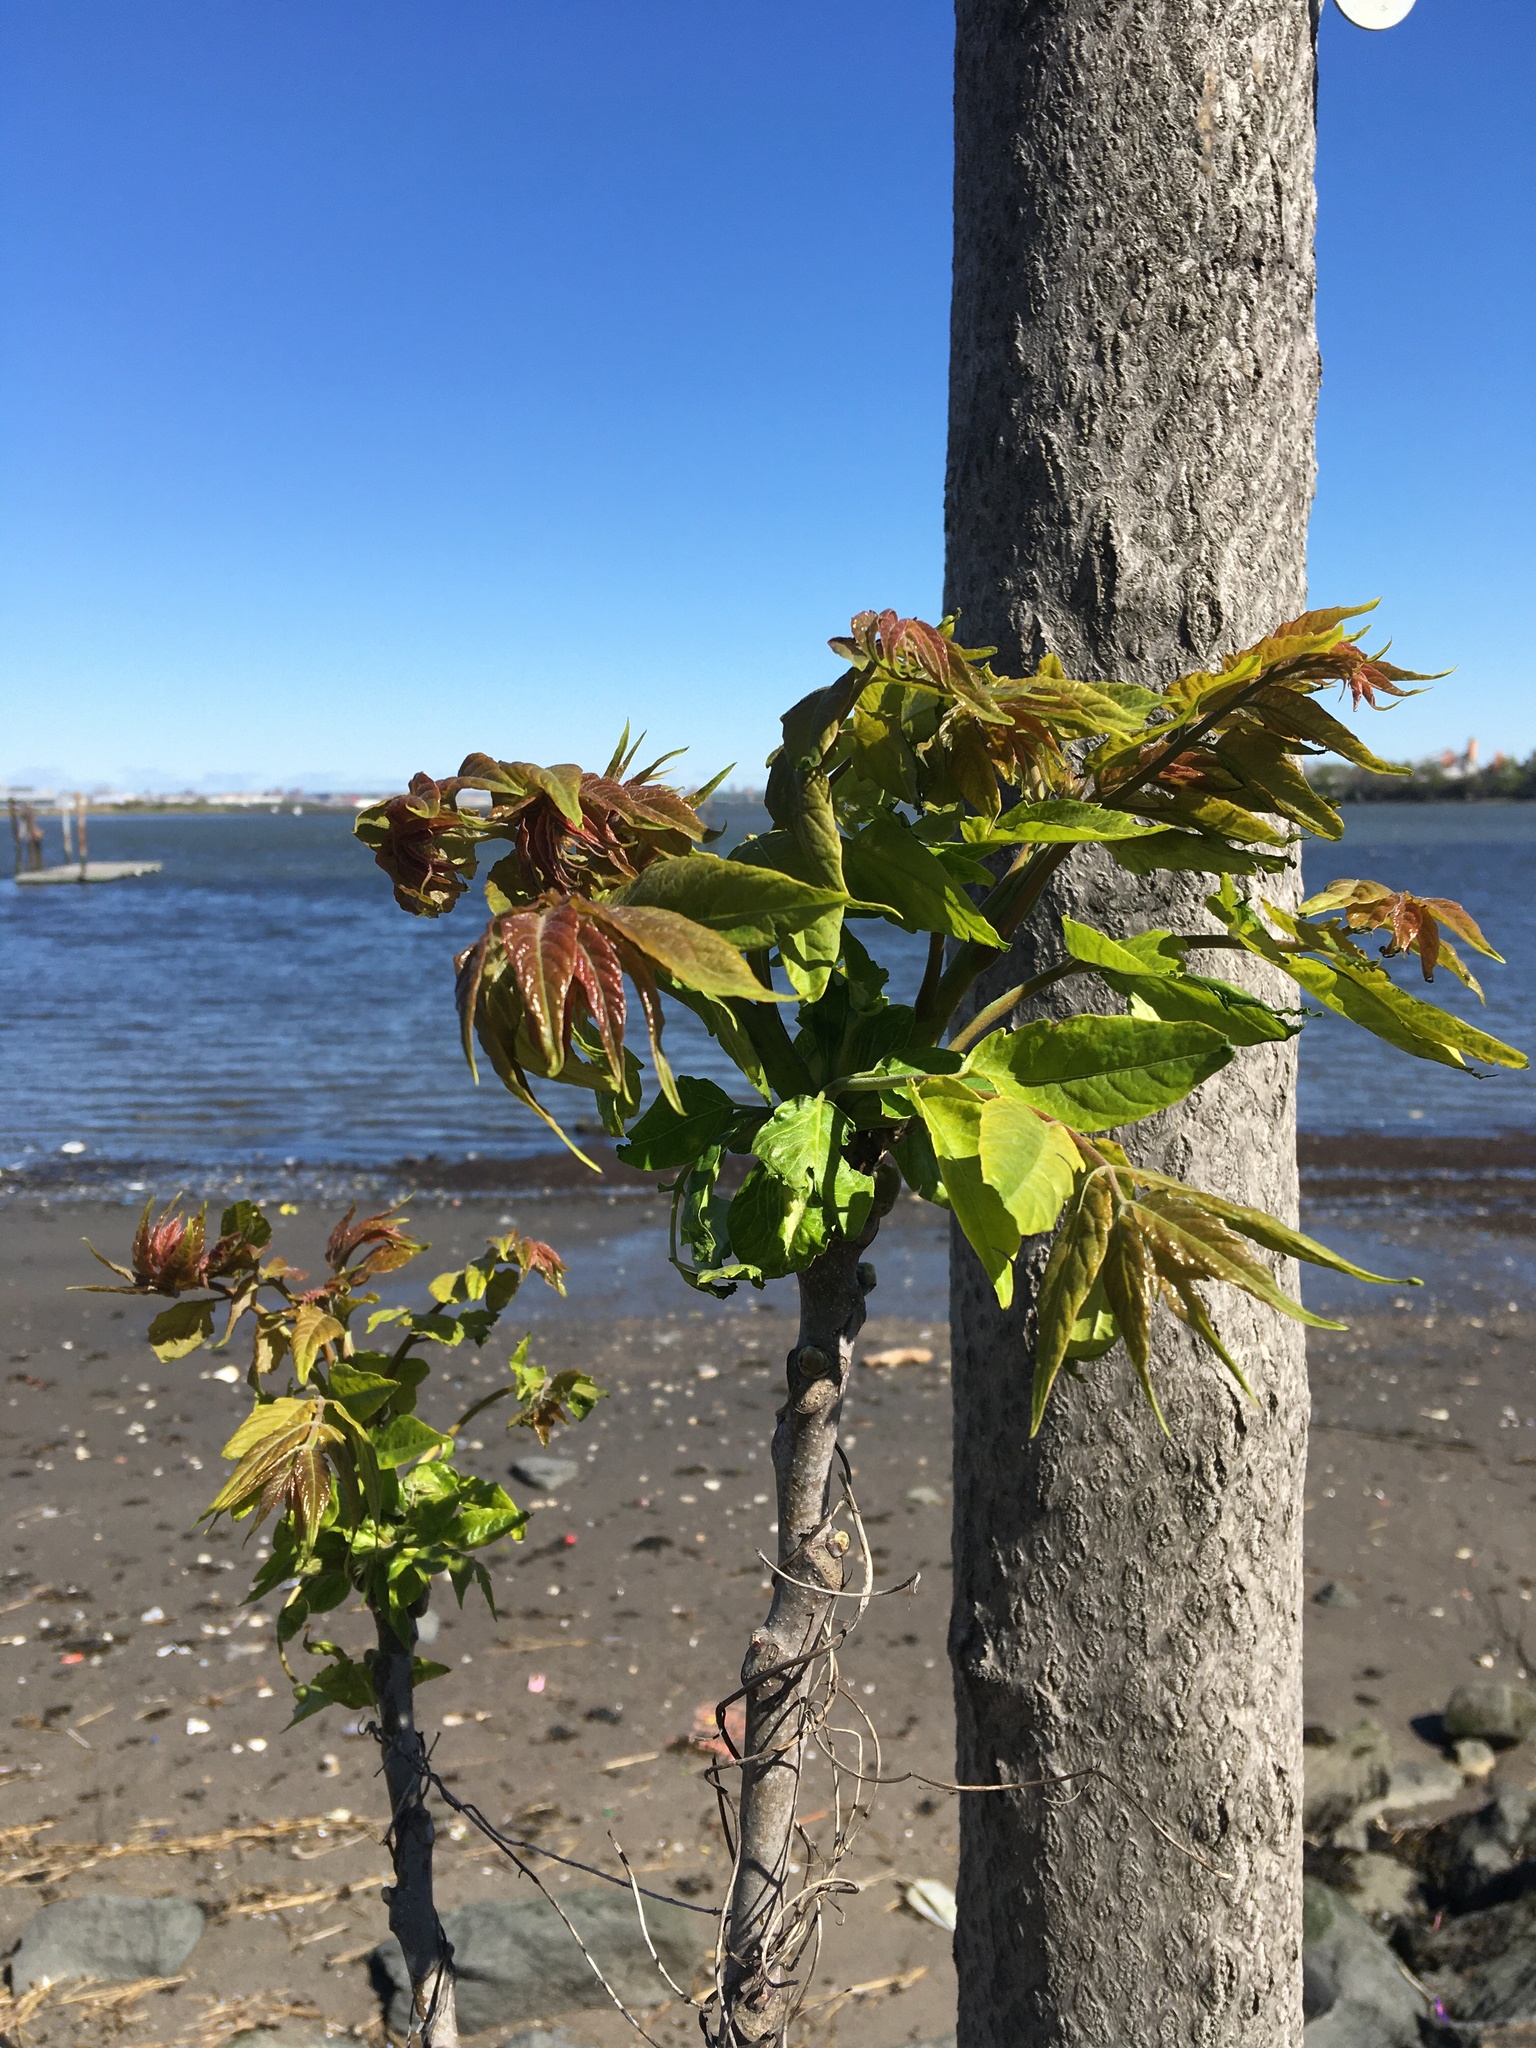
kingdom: Plantae
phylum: Tracheophyta
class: Magnoliopsida
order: Sapindales
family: Simaroubaceae
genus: Ailanthus
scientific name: Ailanthus altissima
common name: Tree-of-heaven
